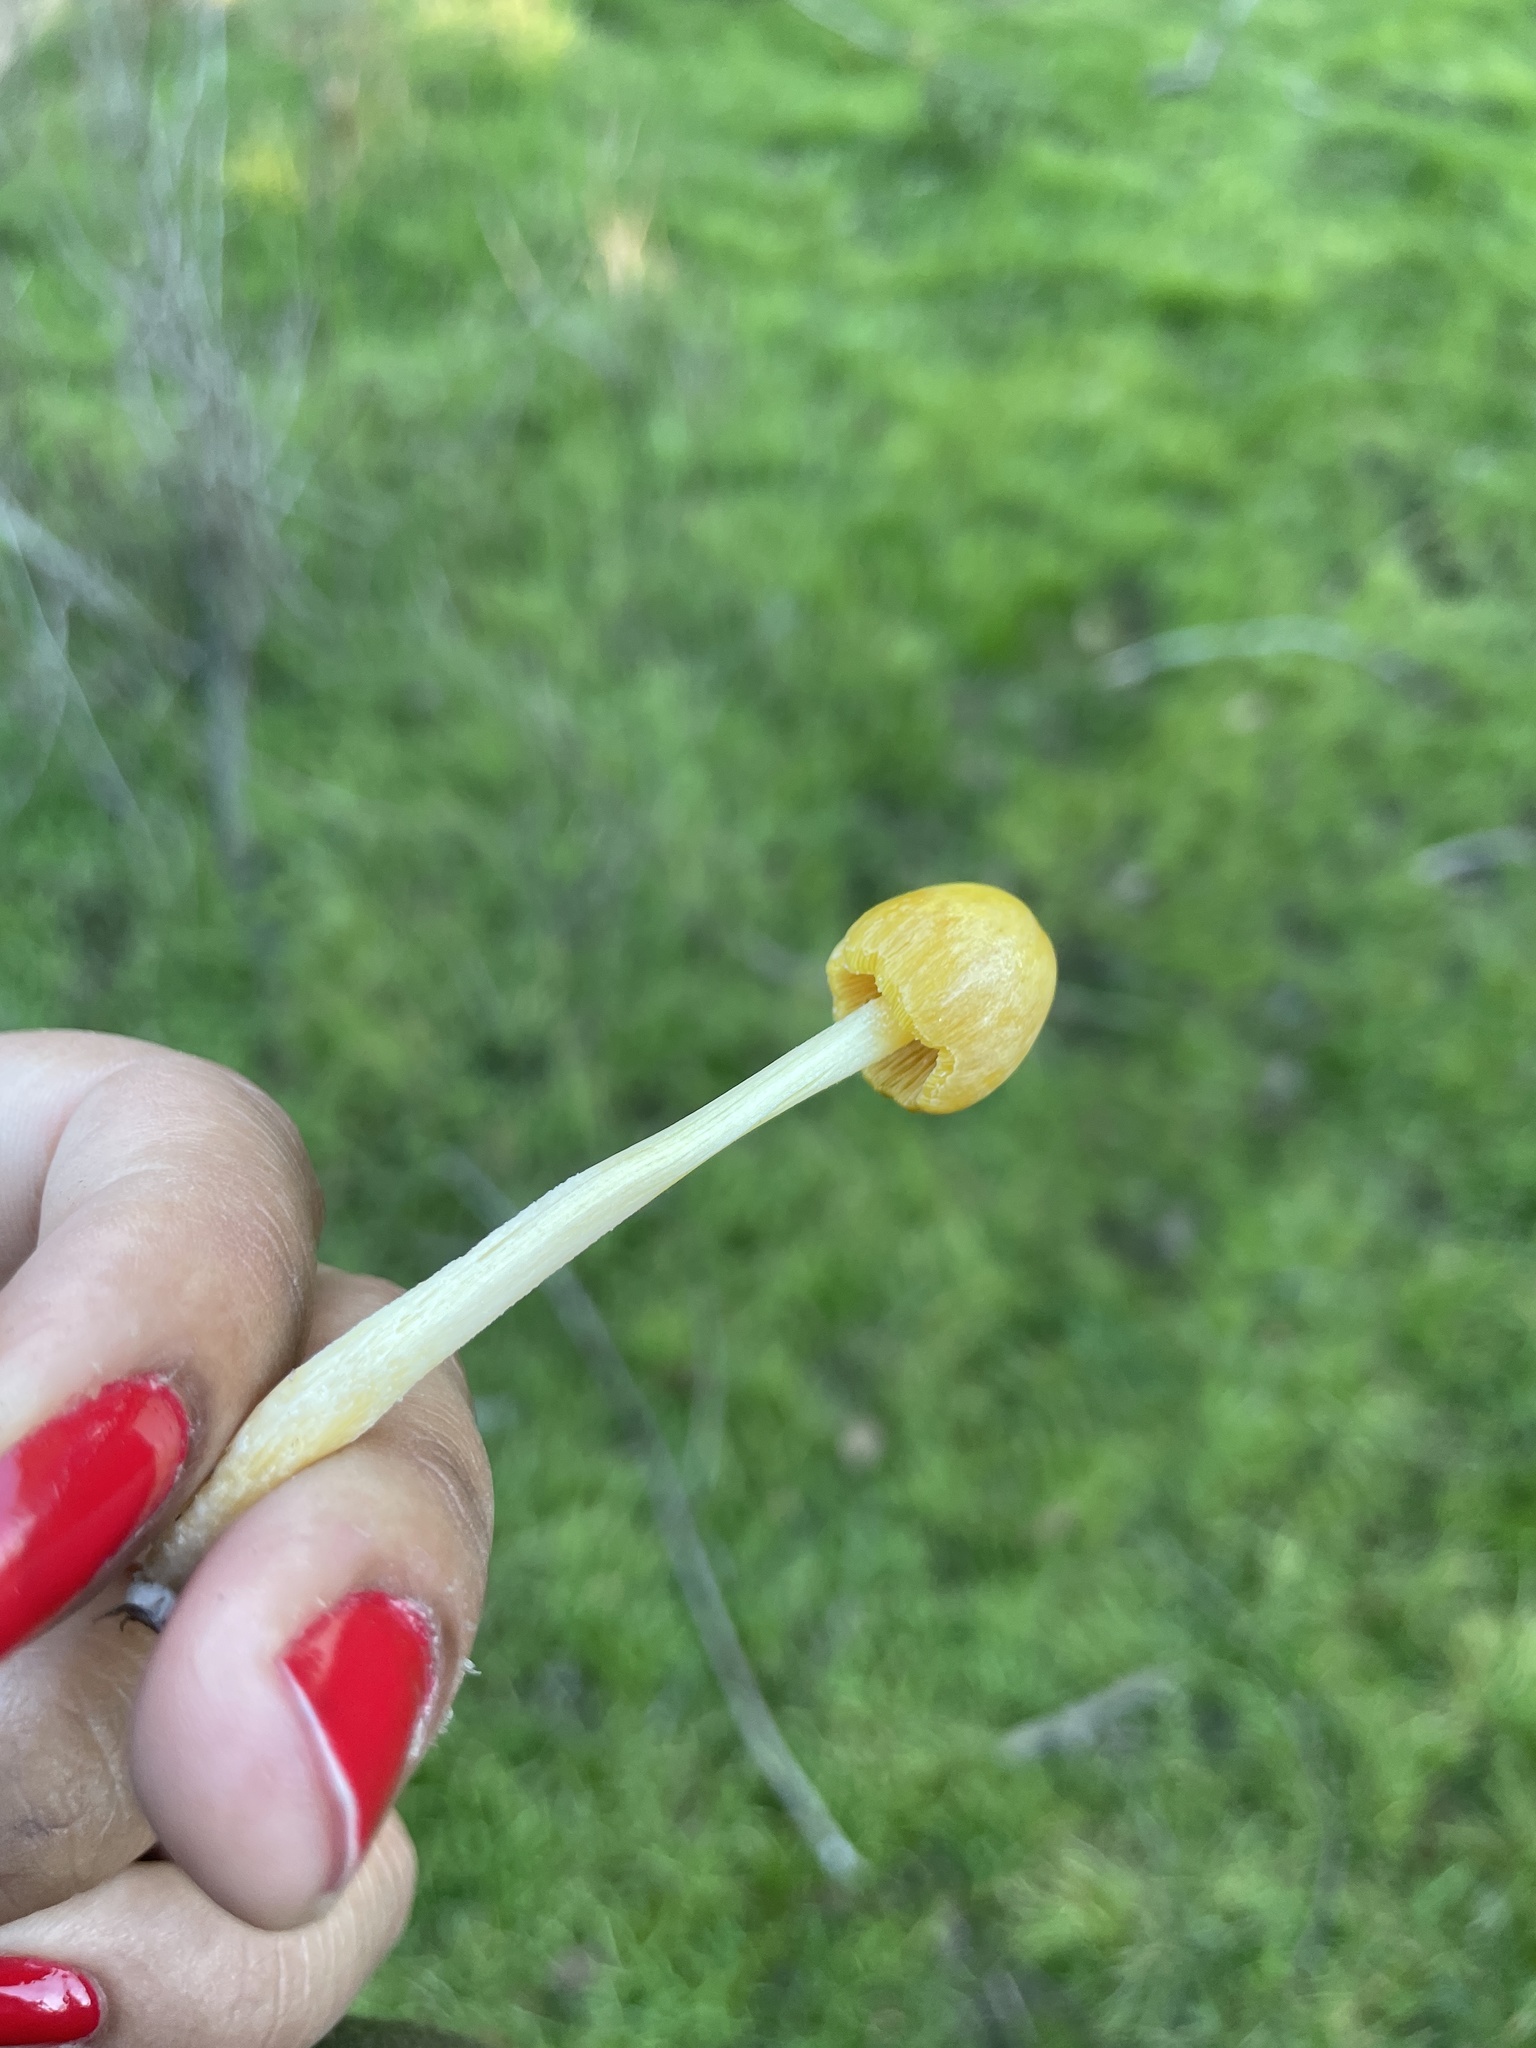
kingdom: Fungi
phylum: Basidiomycota
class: Agaricomycetes
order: Agaricales
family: Bolbitiaceae
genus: Bolbitius
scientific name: Bolbitius titubans
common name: Yellow fieldcap
